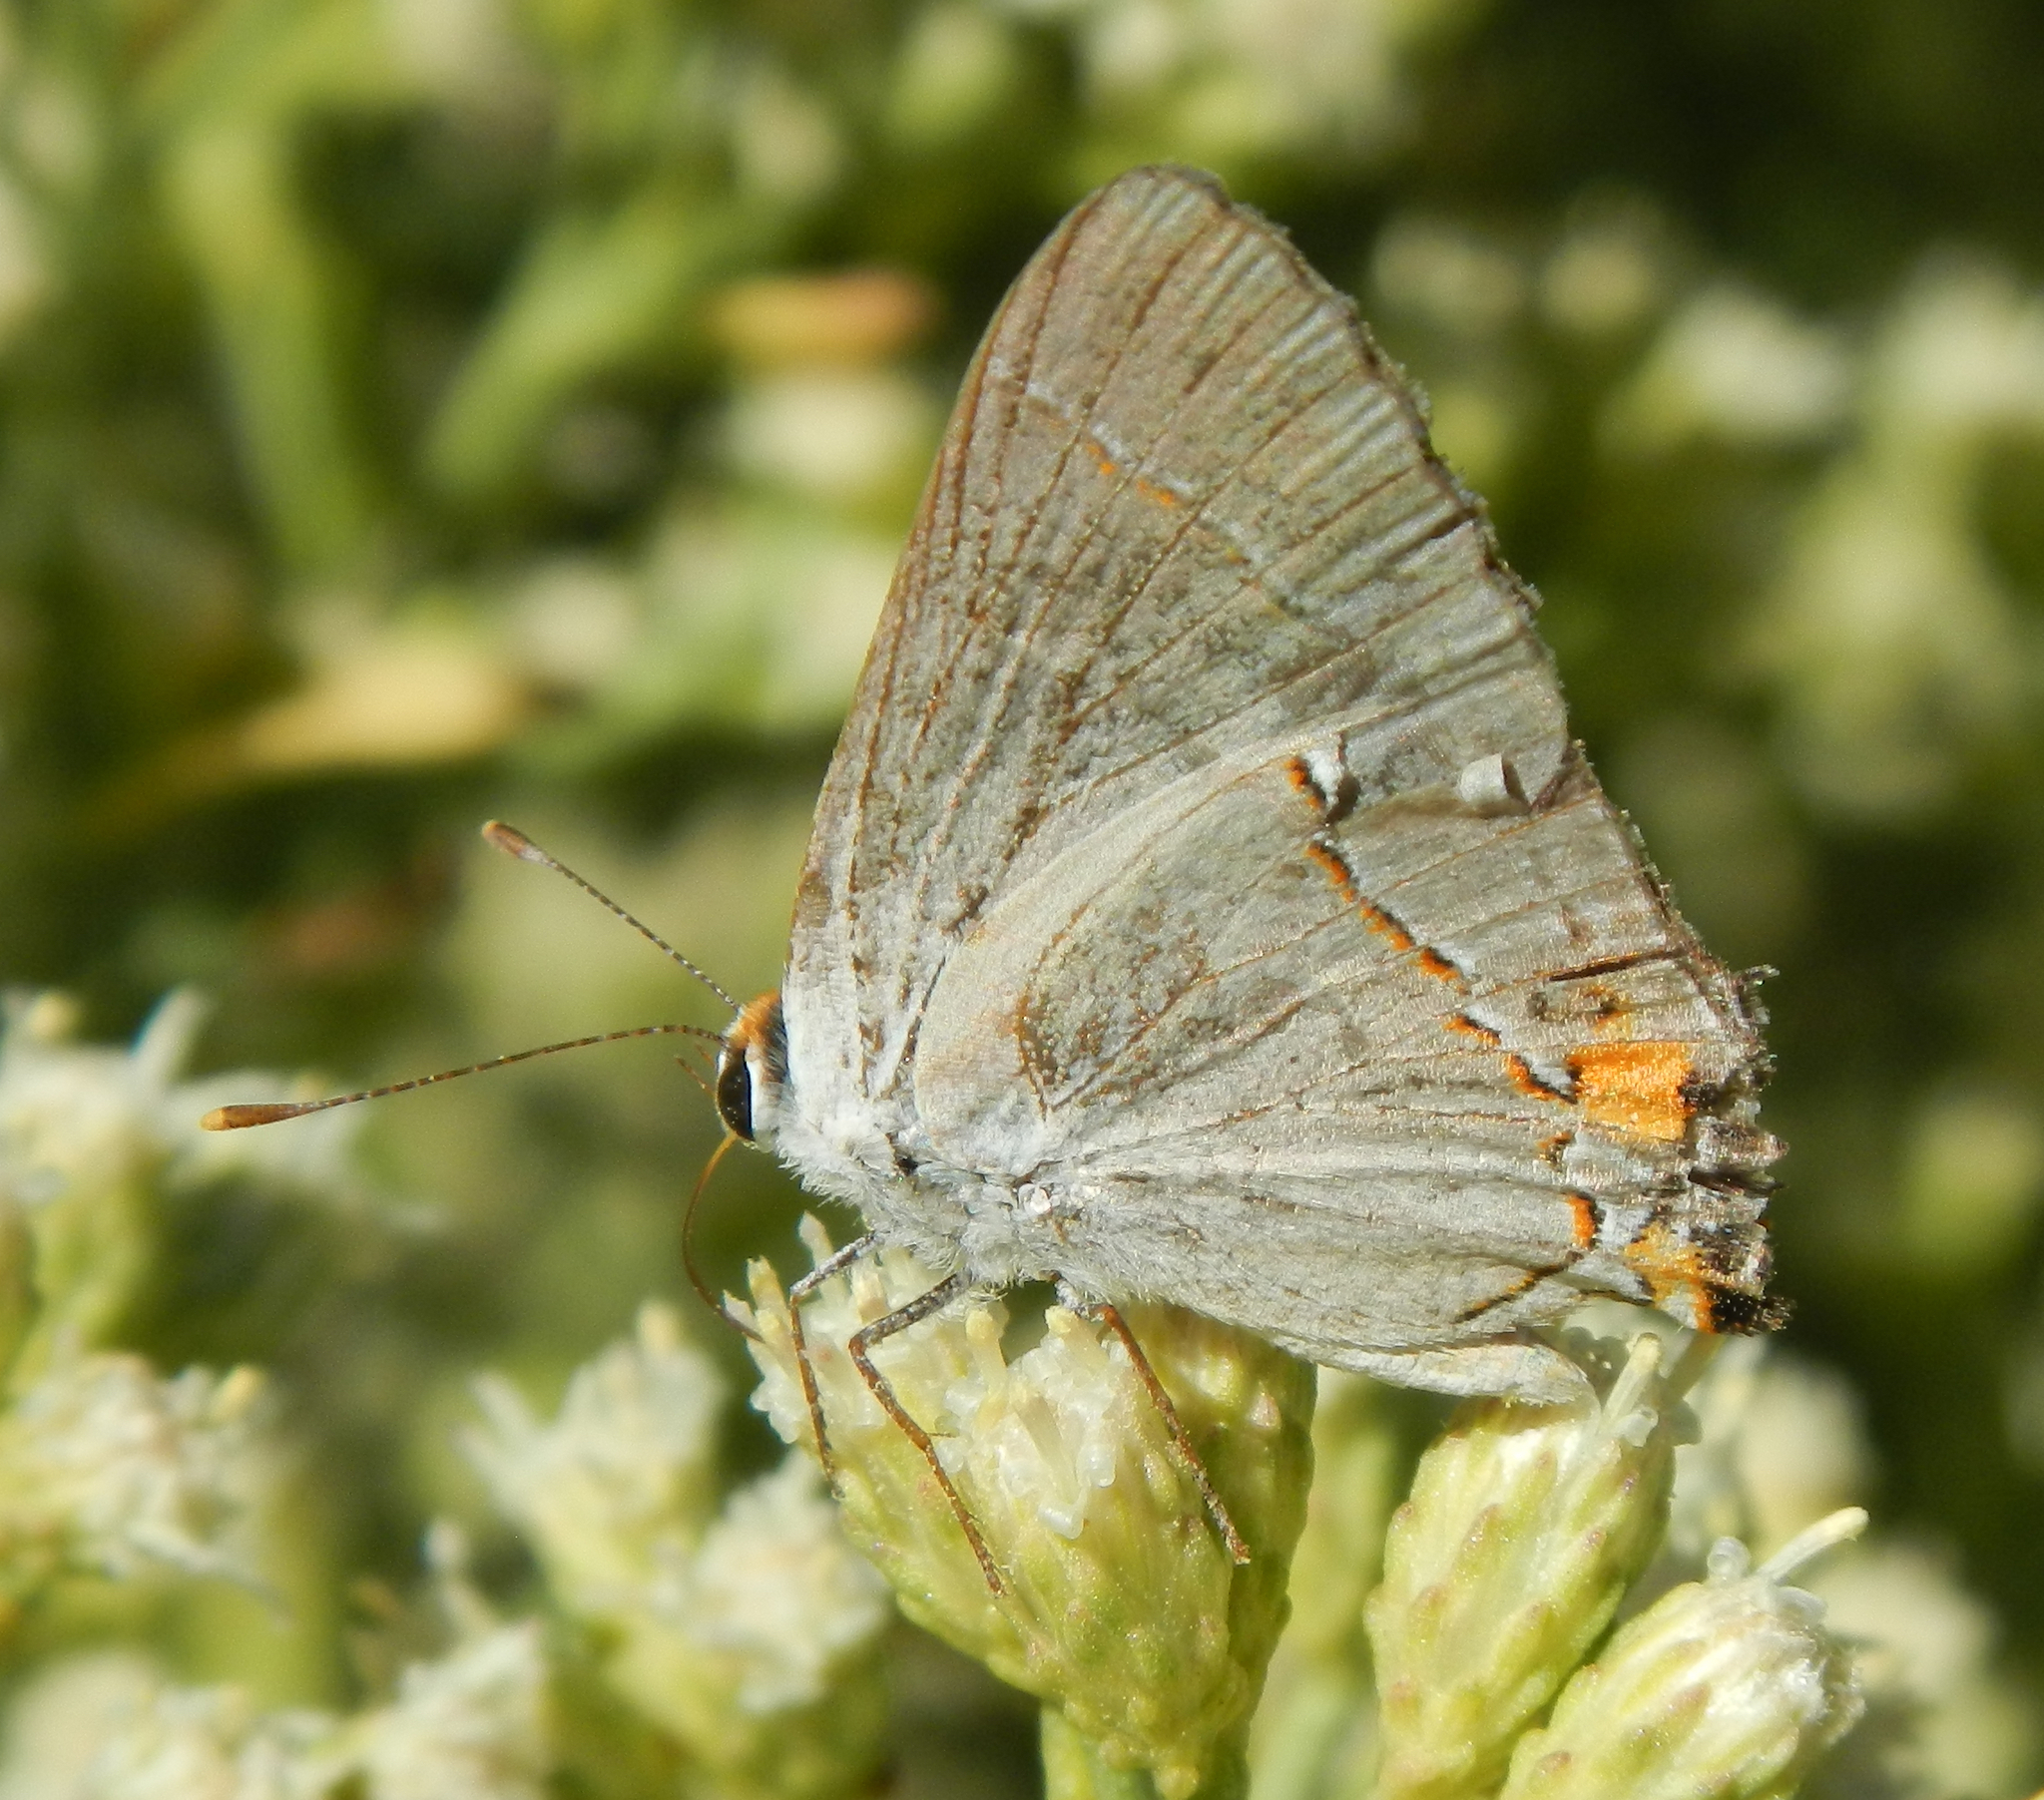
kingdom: Animalia
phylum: Arthropoda
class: Insecta
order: Lepidoptera
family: Lycaenidae
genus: Strymon
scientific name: Strymon melinus
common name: Gray hairstreak
